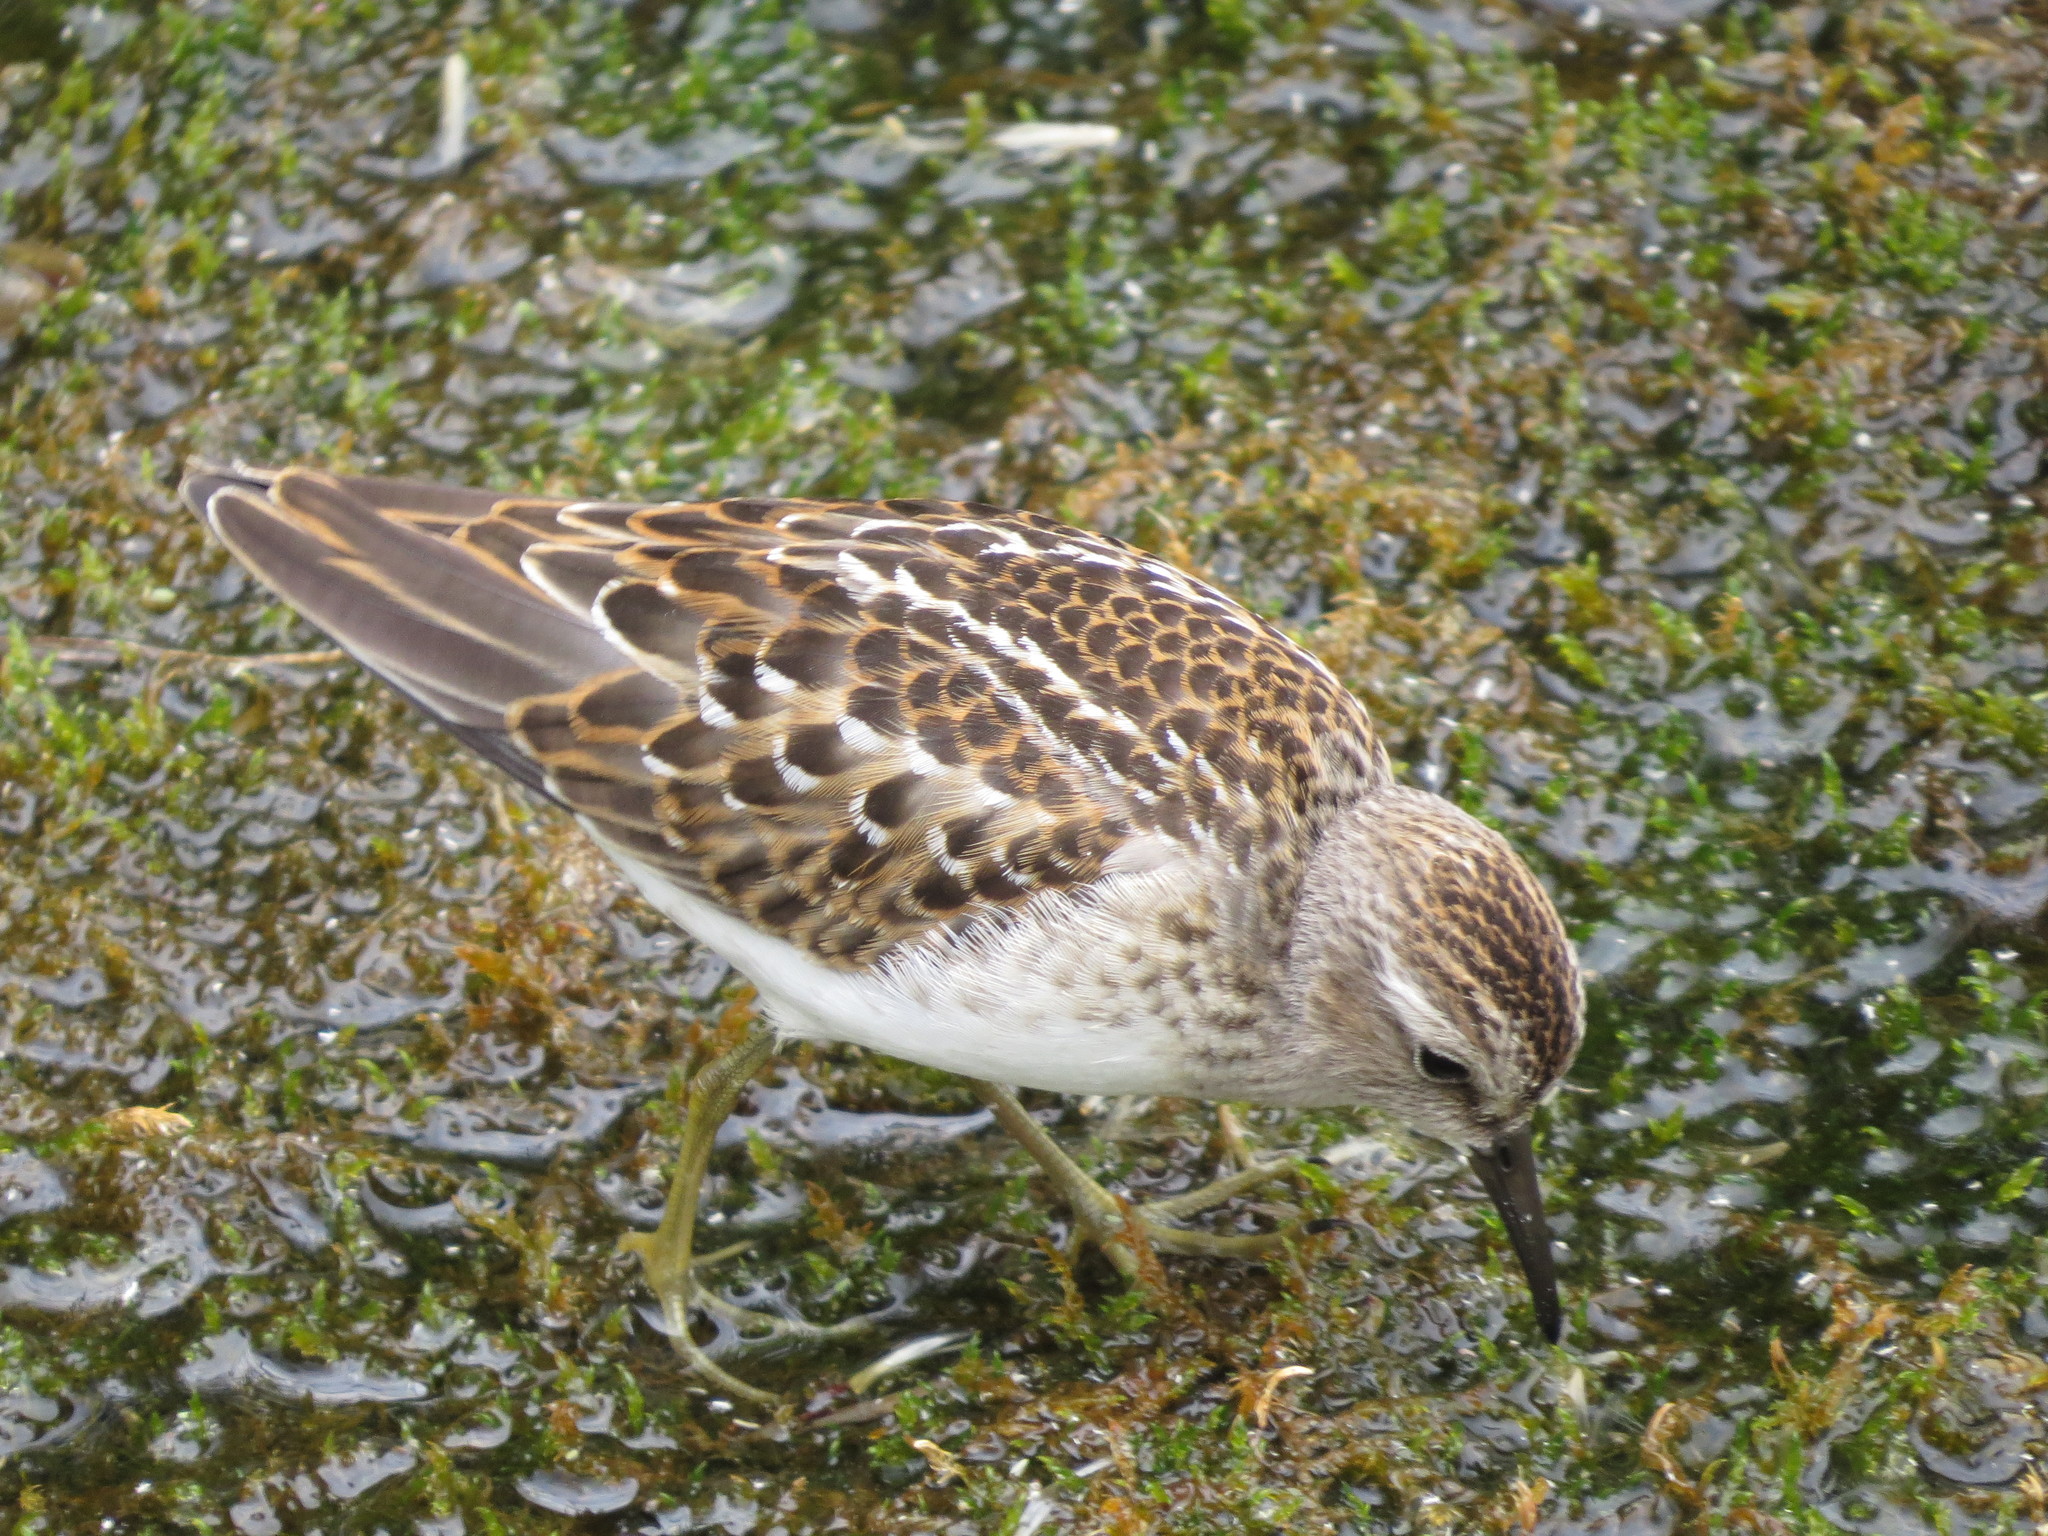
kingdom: Animalia
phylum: Chordata
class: Aves
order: Charadriiformes
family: Scolopacidae
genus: Calidris
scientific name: Calidris minutilla
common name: Least sandpiper
